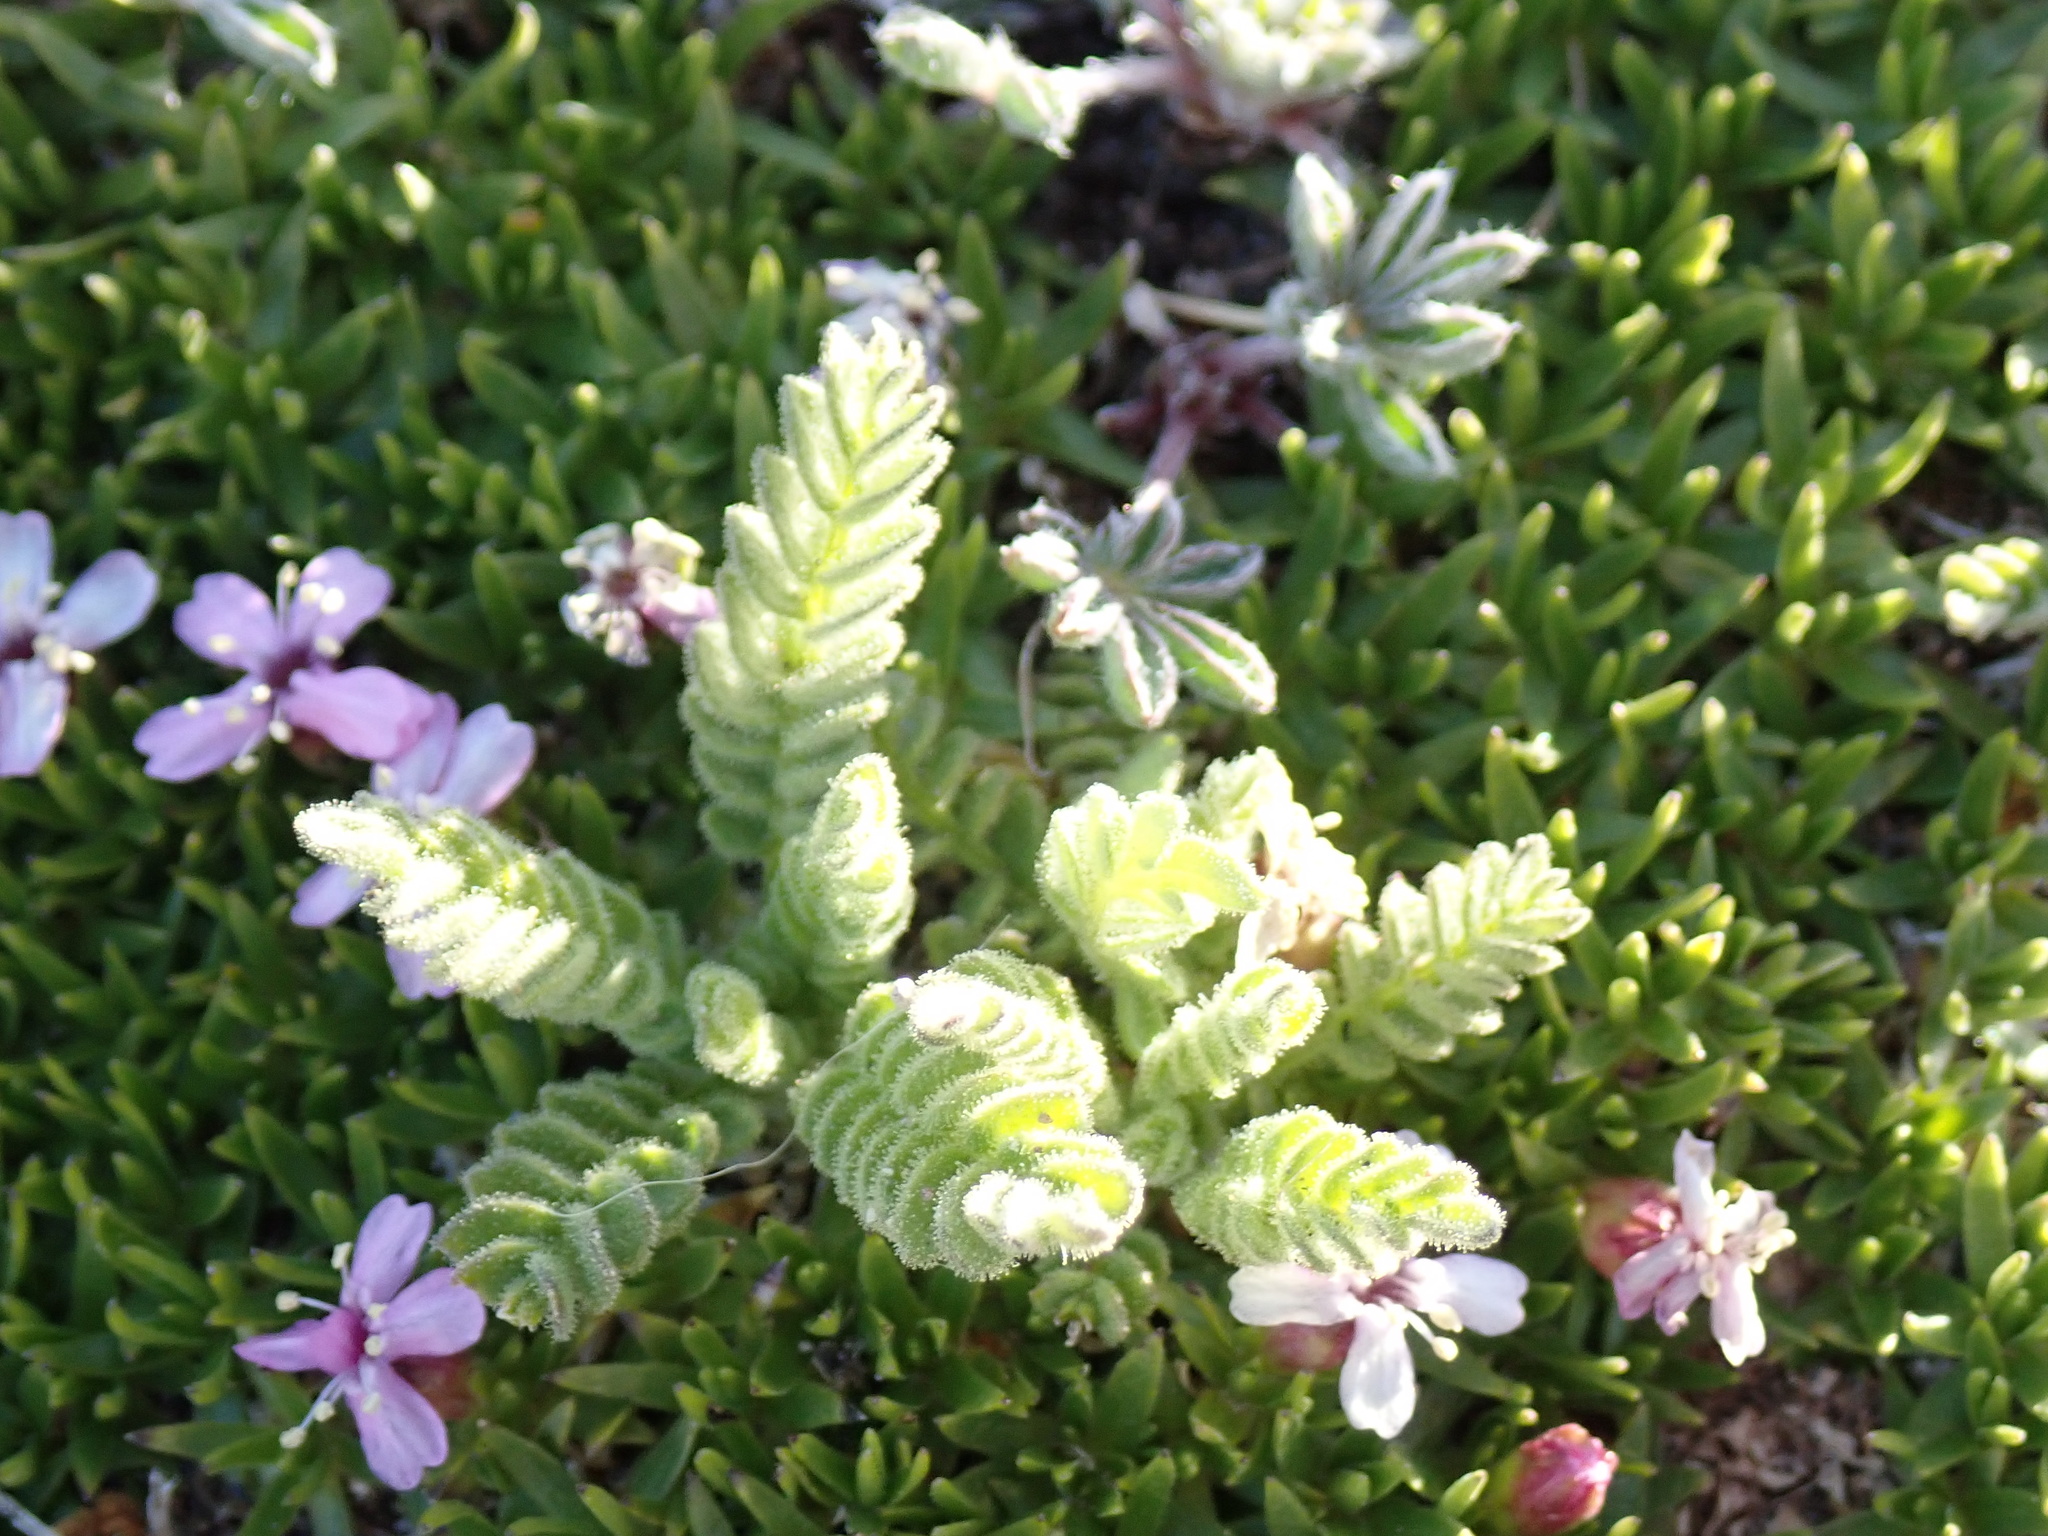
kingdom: Plantae
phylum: Tracheophyta
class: Magnoliopsida
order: Ericales
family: Polemoniaceae
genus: Polemonium
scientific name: Polemonium elegans
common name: Elegant jacob's-ladder
